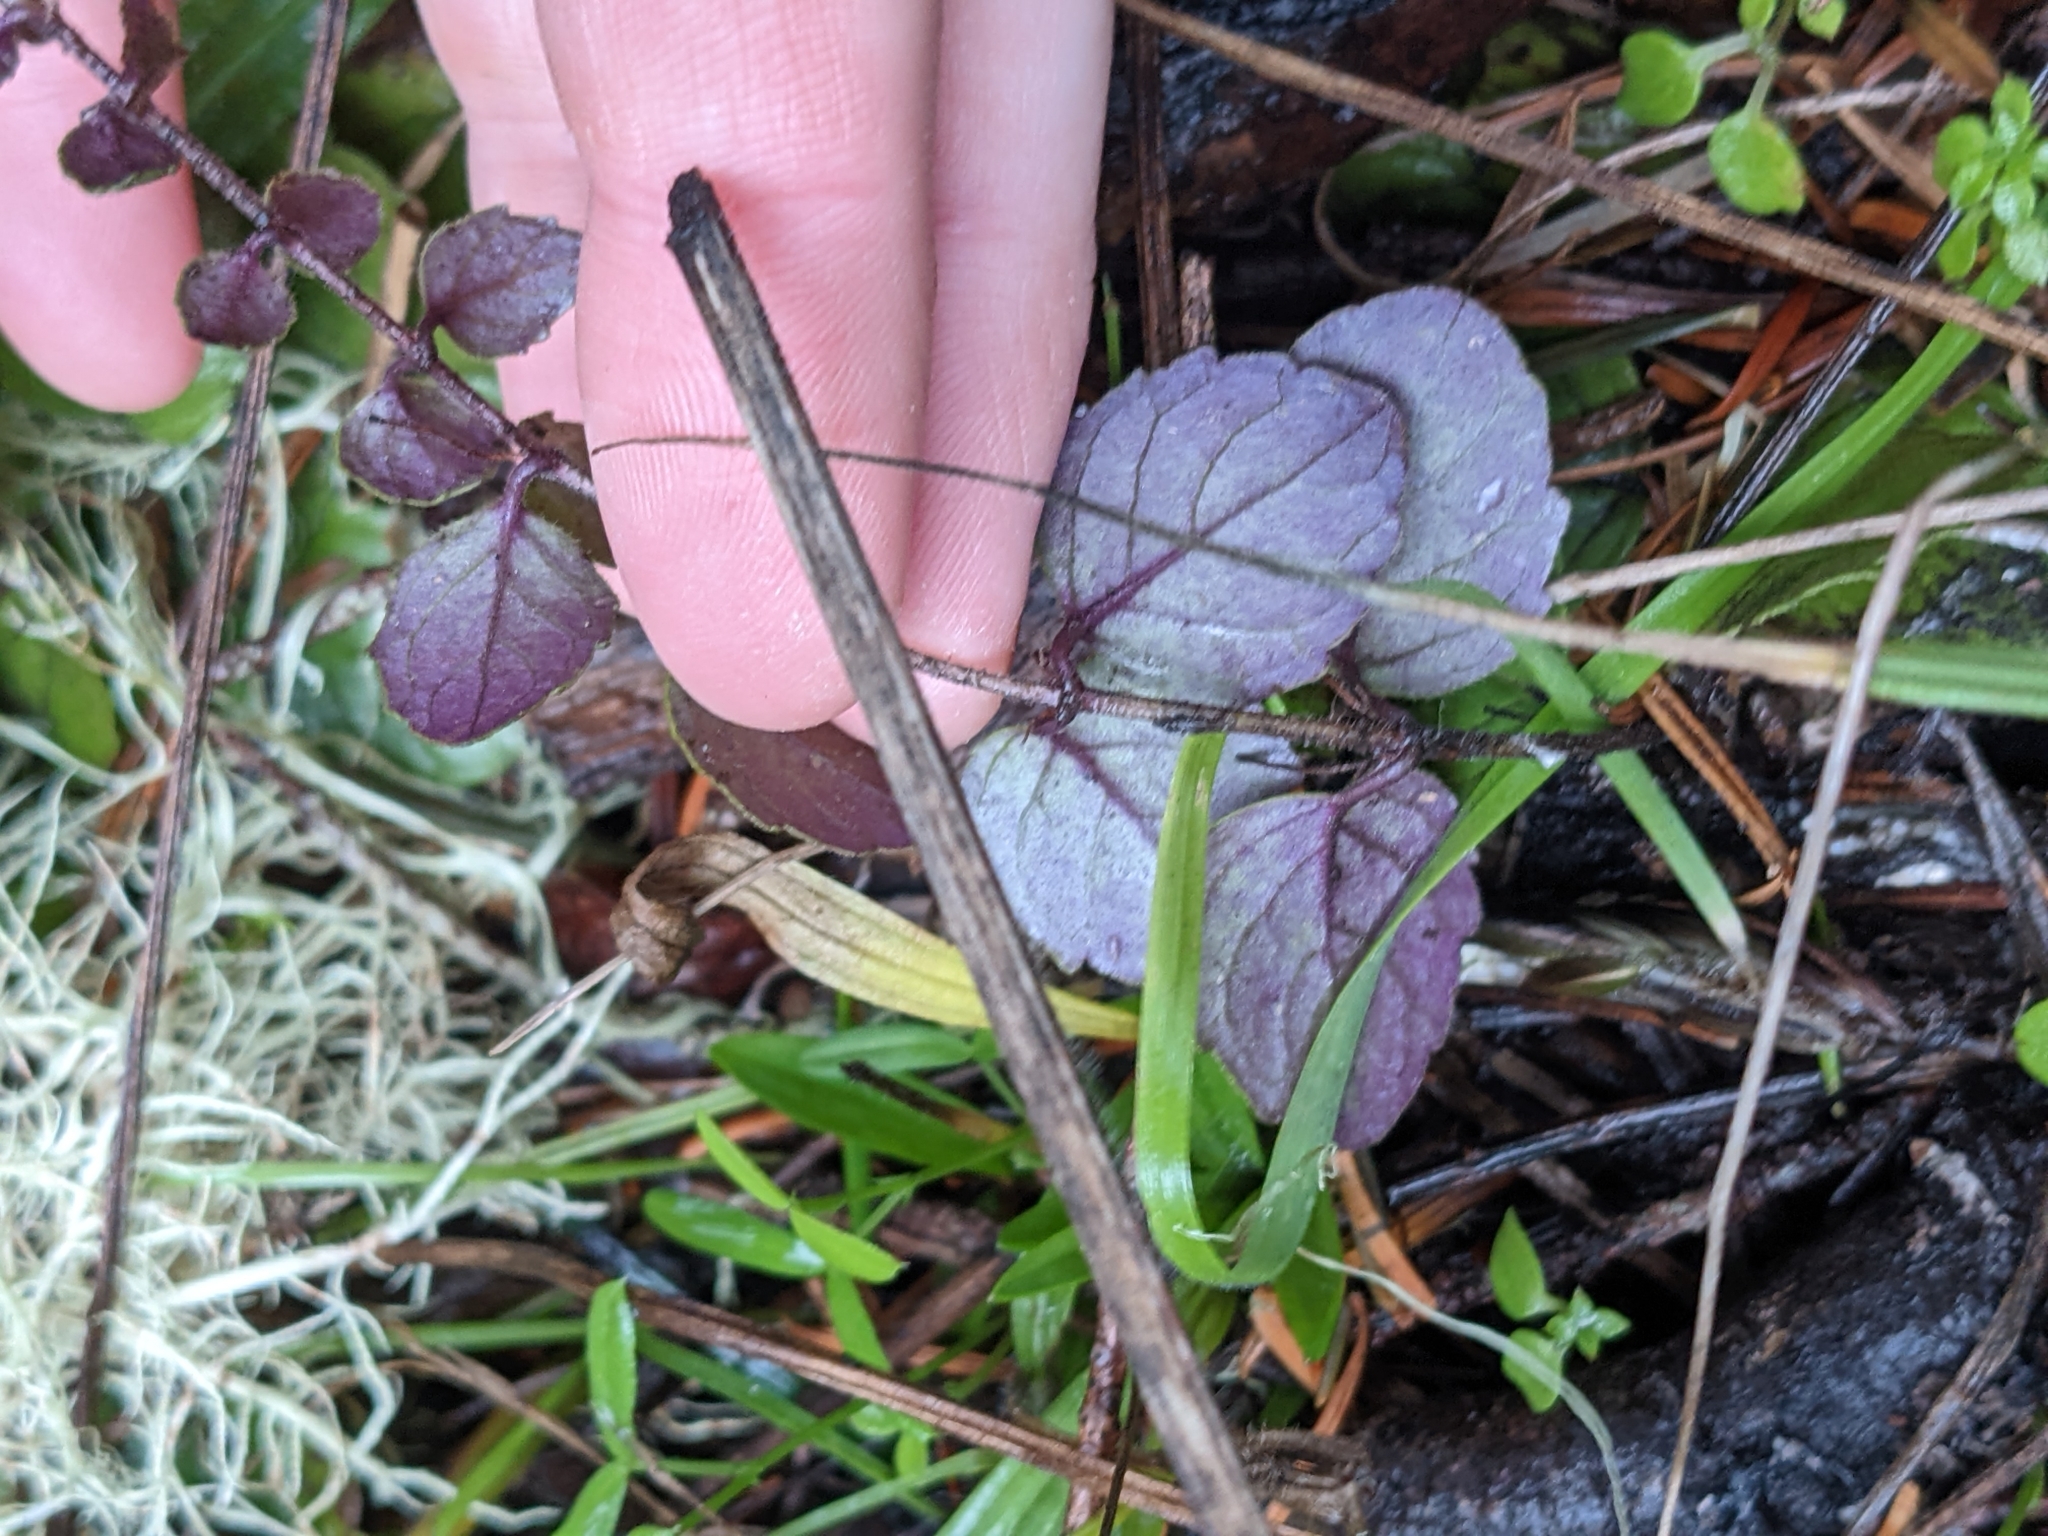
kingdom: Plantae
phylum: Tracheophyta
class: Magnoliopsida
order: Lamiales
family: Lamiaceae
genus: Micromeria
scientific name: Micromeria douglasii
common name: Yerba buena
